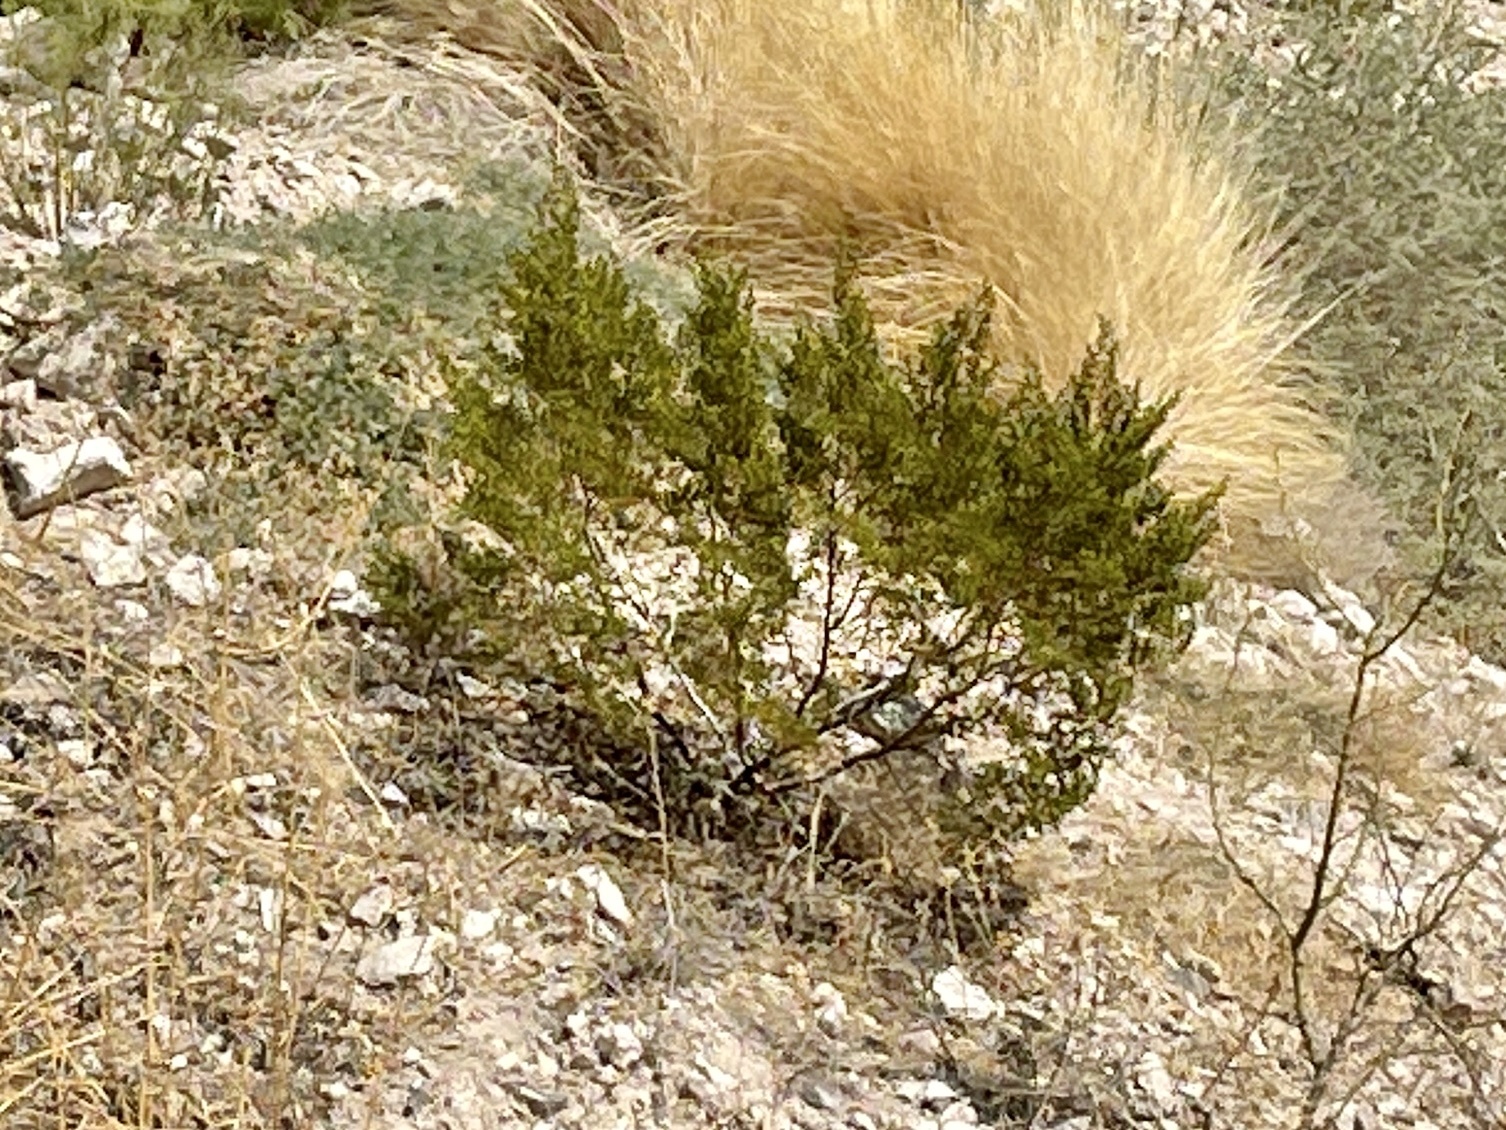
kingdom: Plantae
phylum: Tracheophyta
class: Magnoliopsida
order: Zygophyllales
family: Zygophyllaceae
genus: Larrea
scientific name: Larrea tridentata
